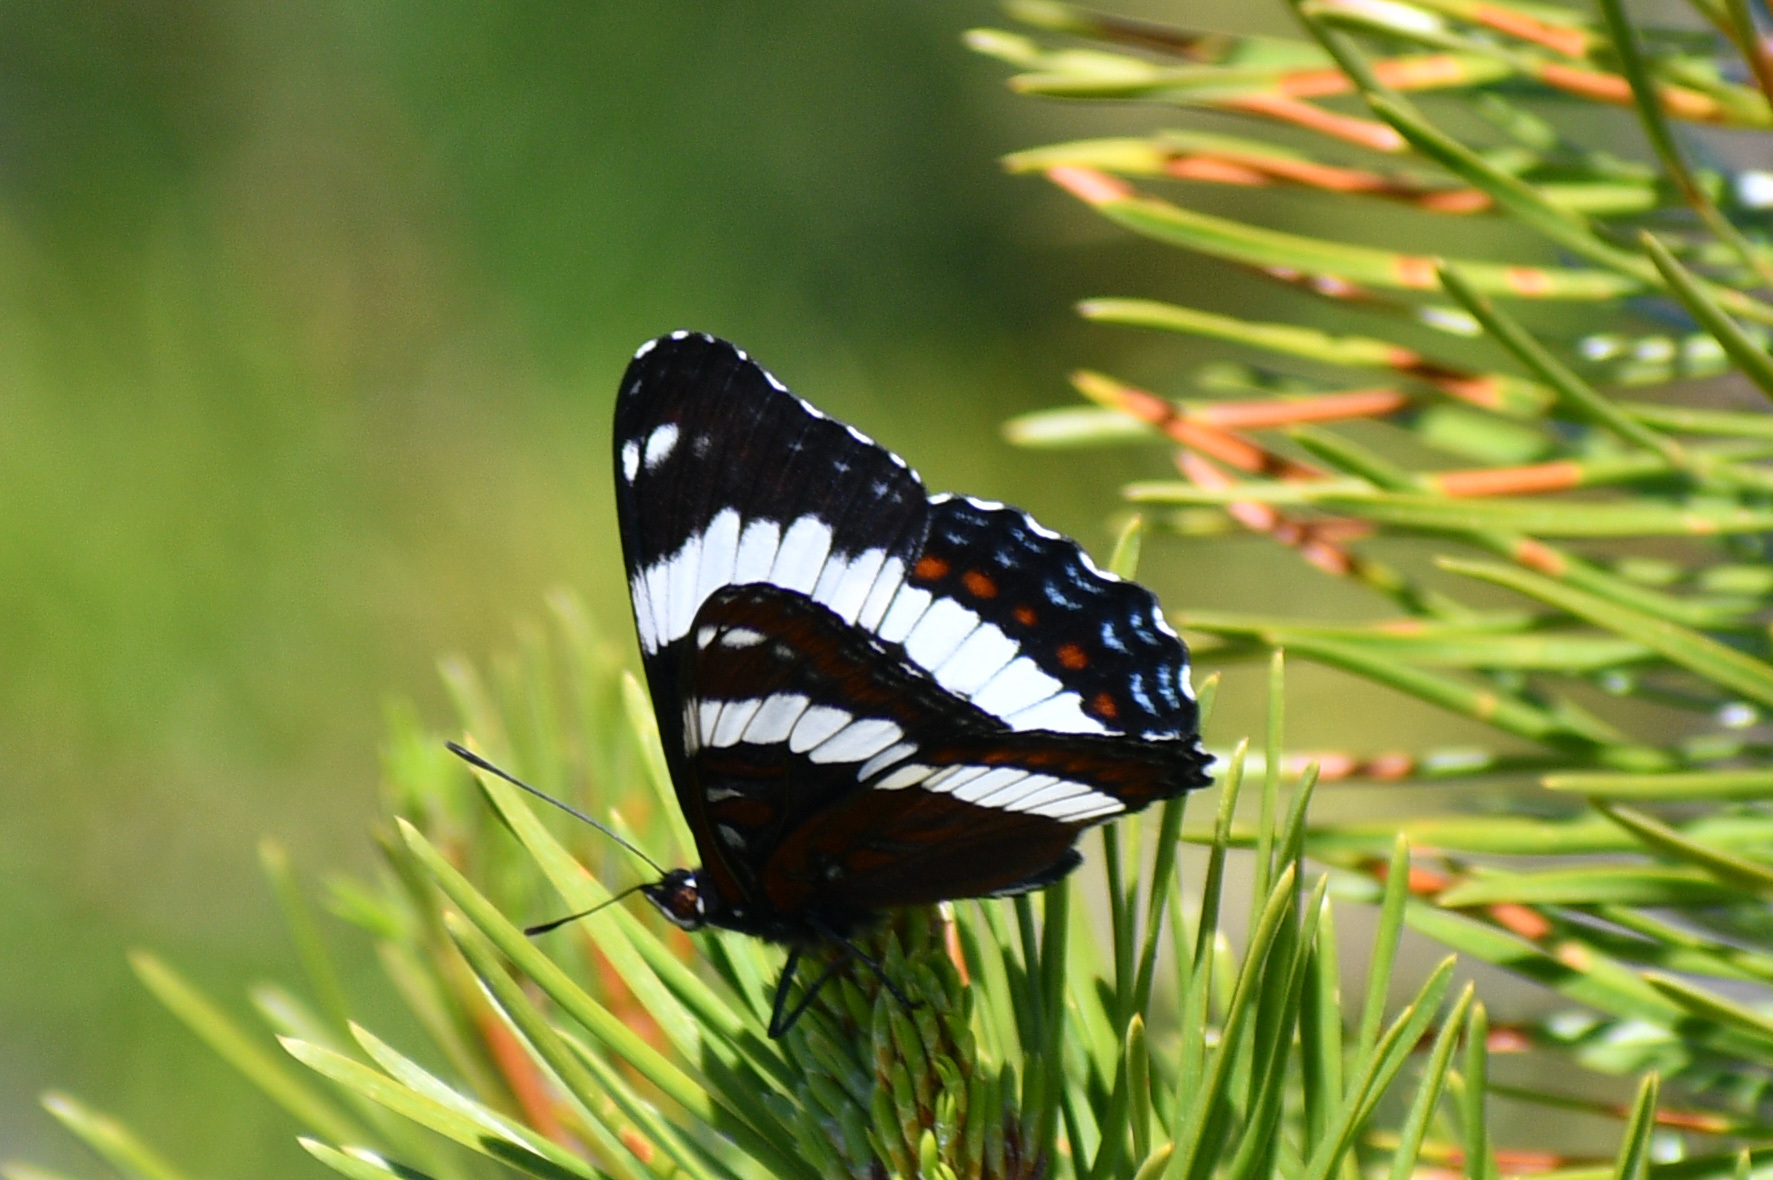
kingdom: Animalia
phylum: Arthropoda
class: Insecta
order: Lepidoptera
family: Nymphalidae
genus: Limenitis
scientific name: Limenitis arthemis
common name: Red-spotted admiral
